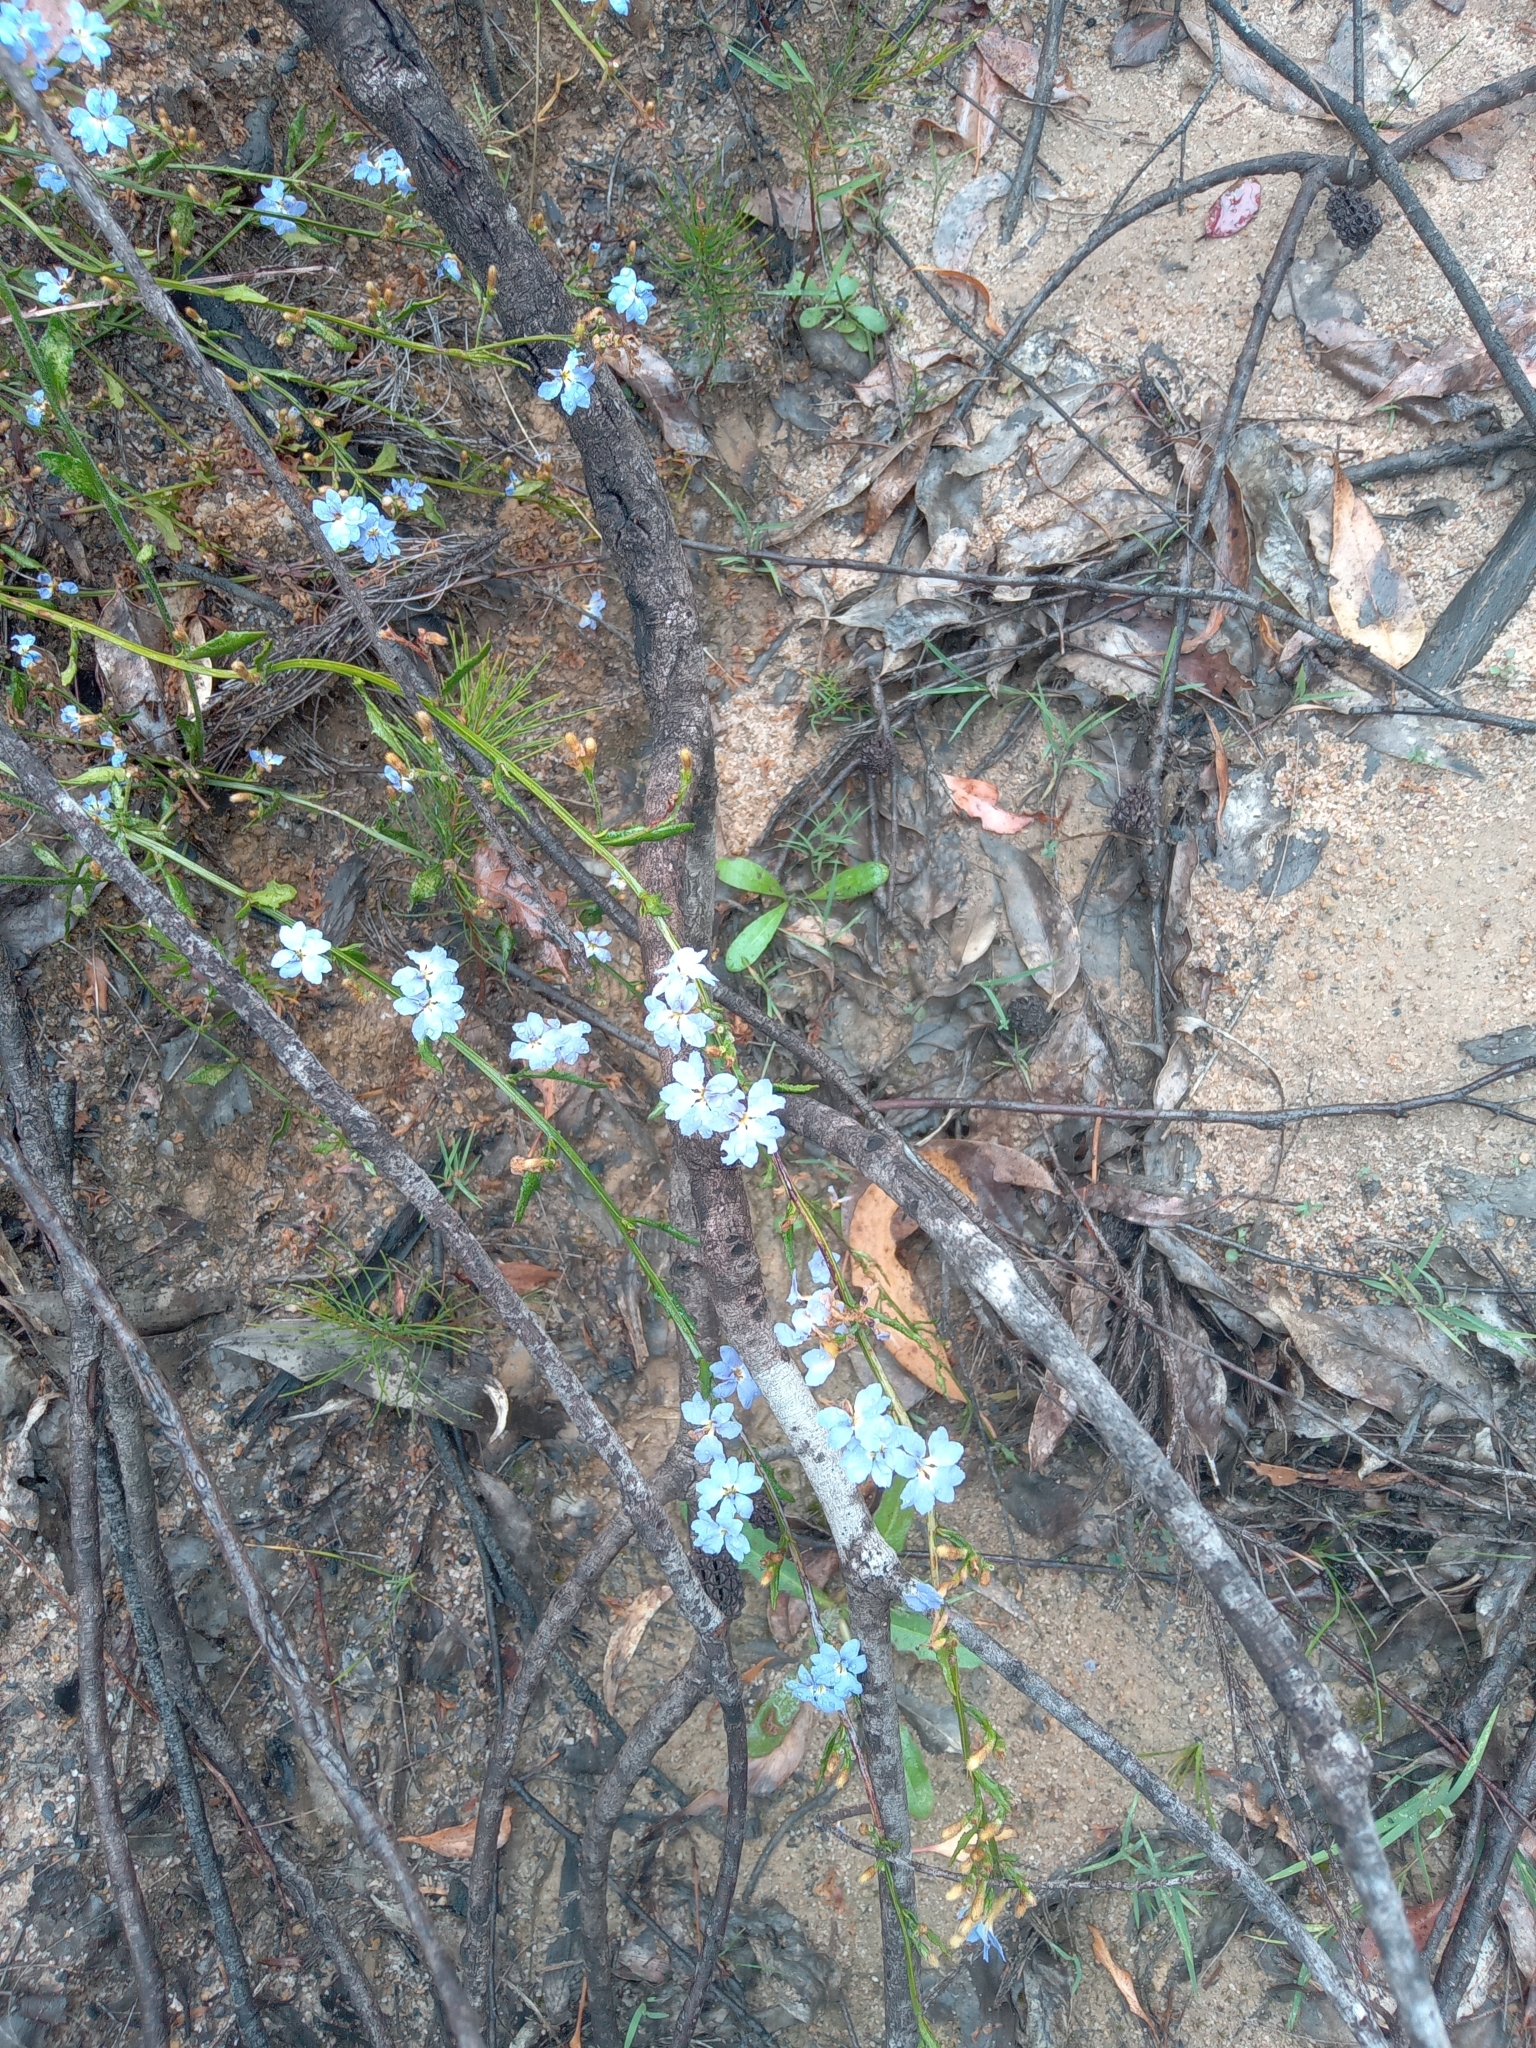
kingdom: Plantae
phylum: Tracheophyta
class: Magnoliopsida
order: Asterales
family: Goodeniaceae
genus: Dampiera
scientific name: Dampiera stricta
